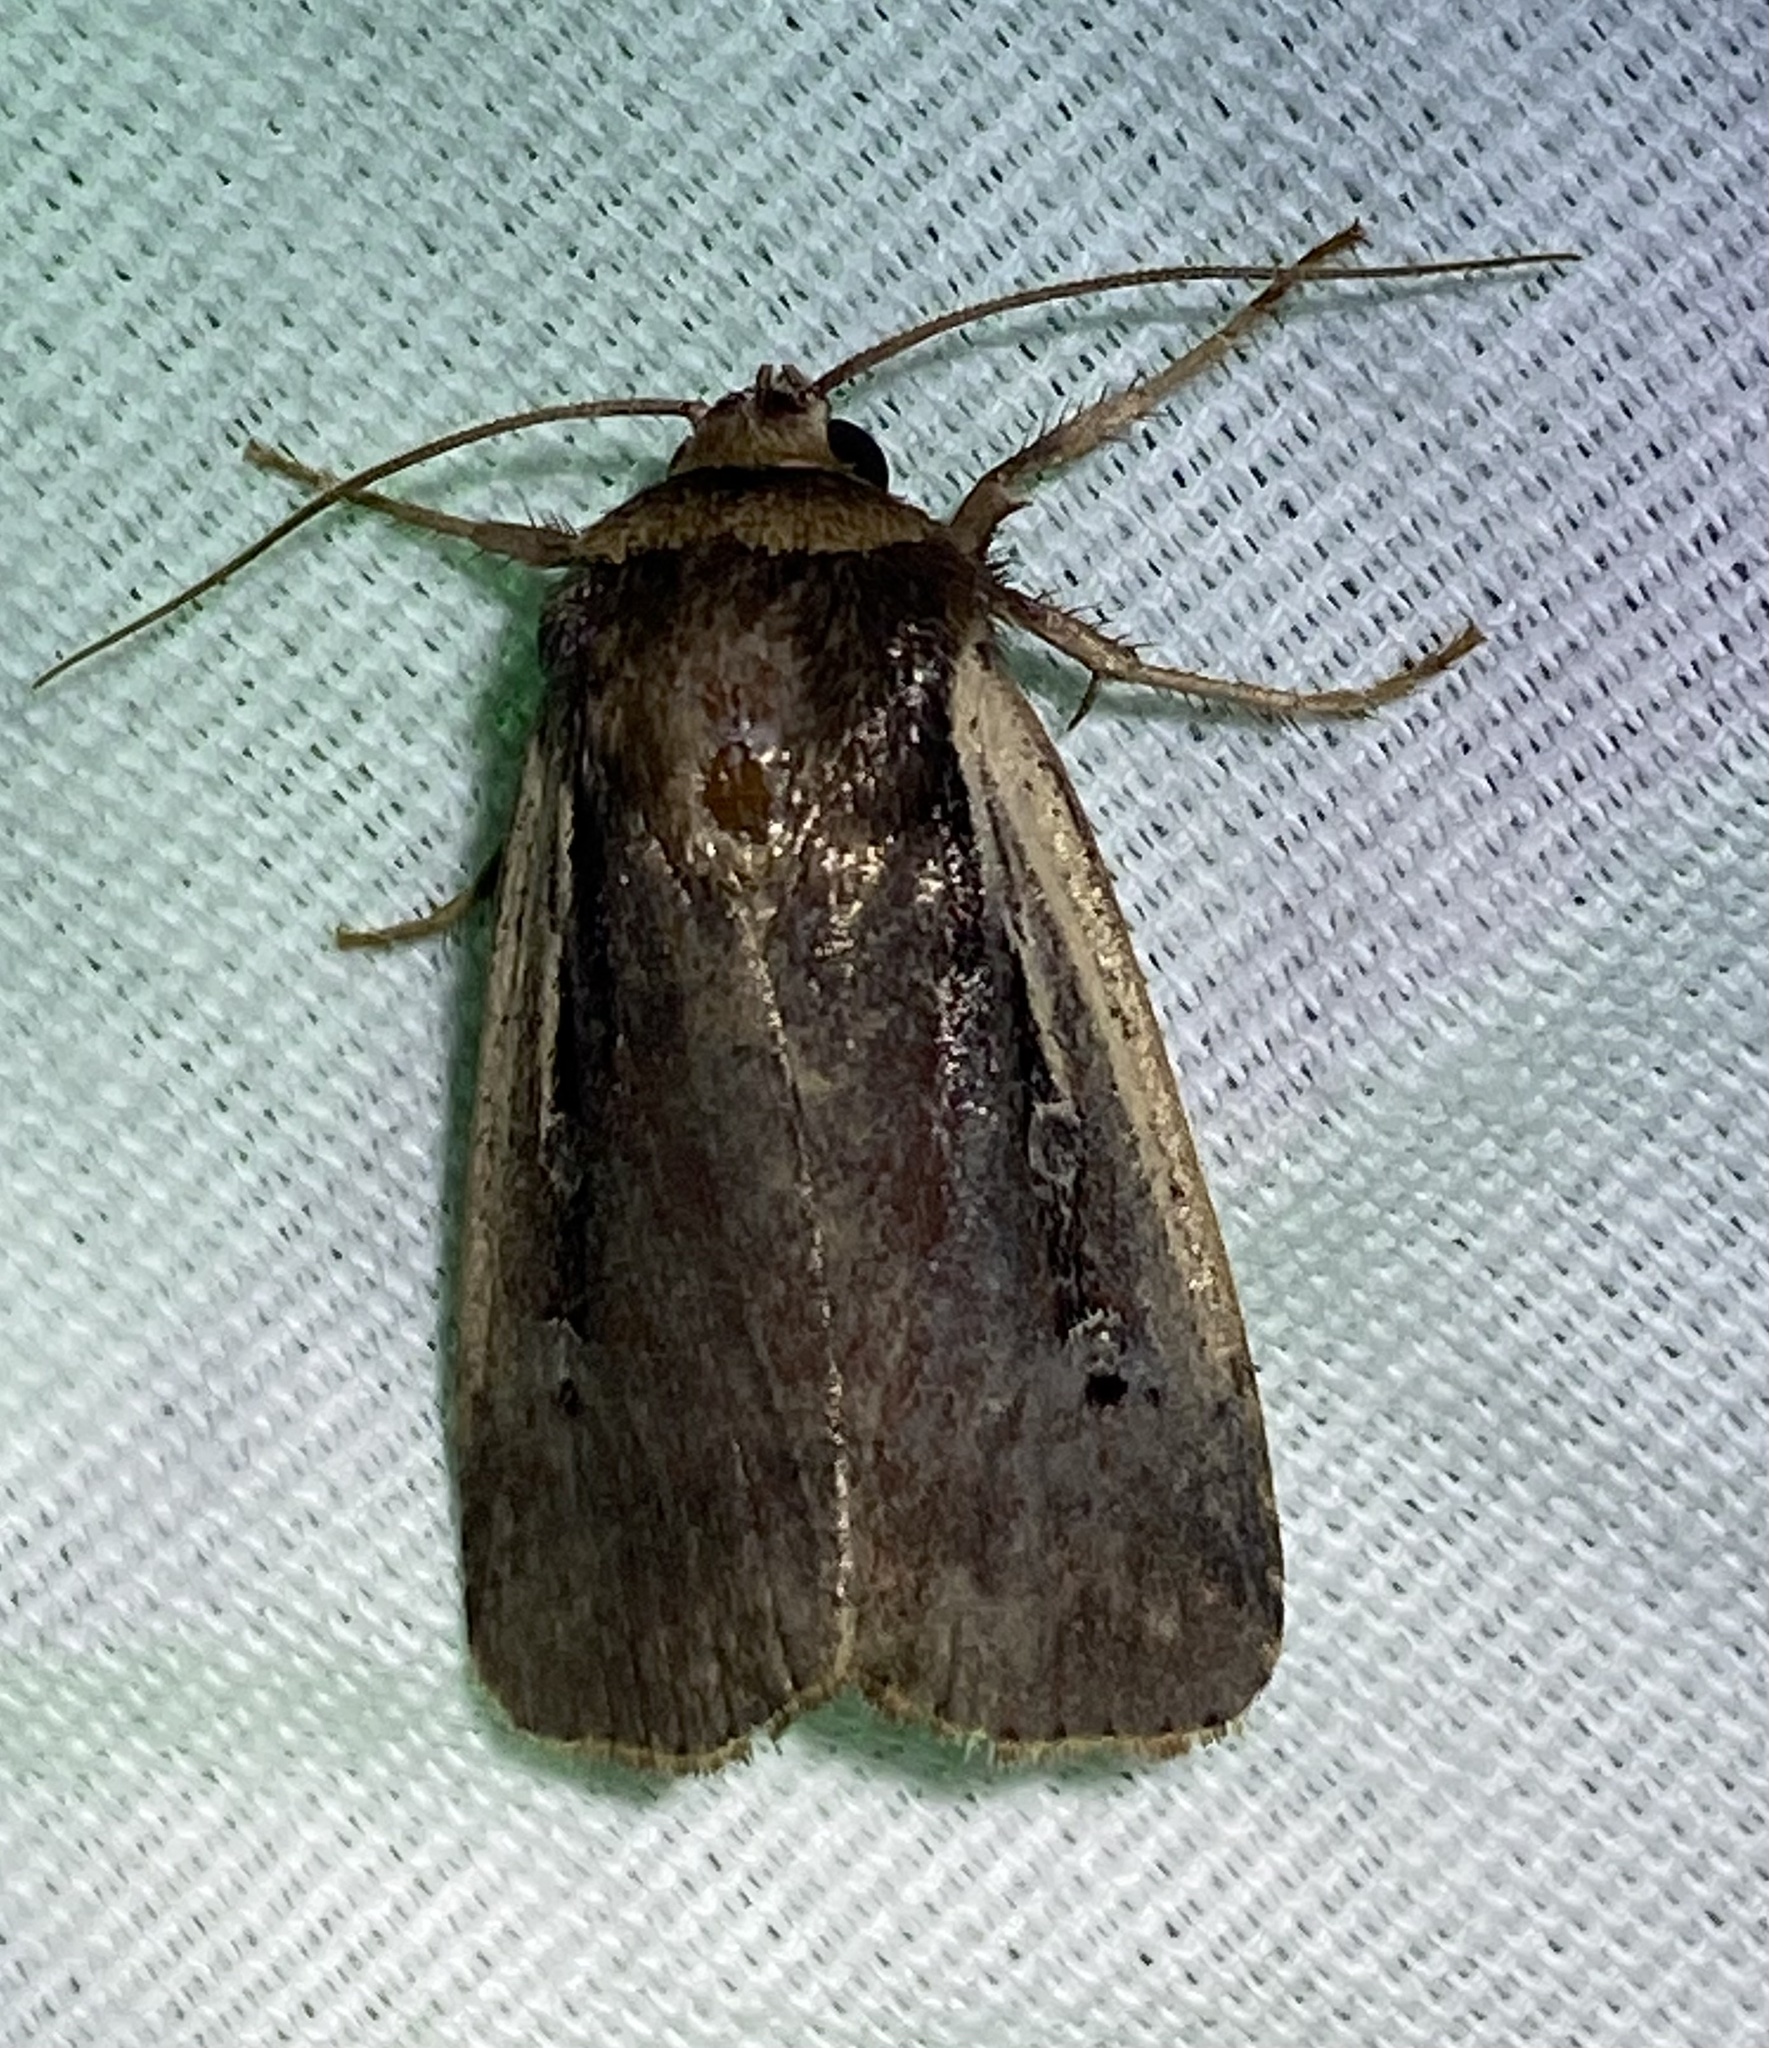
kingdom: Animalia
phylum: Arthropoda
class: Insecta
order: Lepidoptera
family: Noctuidae
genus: Ochropleura
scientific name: Ochropleura implecta
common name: Flame-shouldered dart
